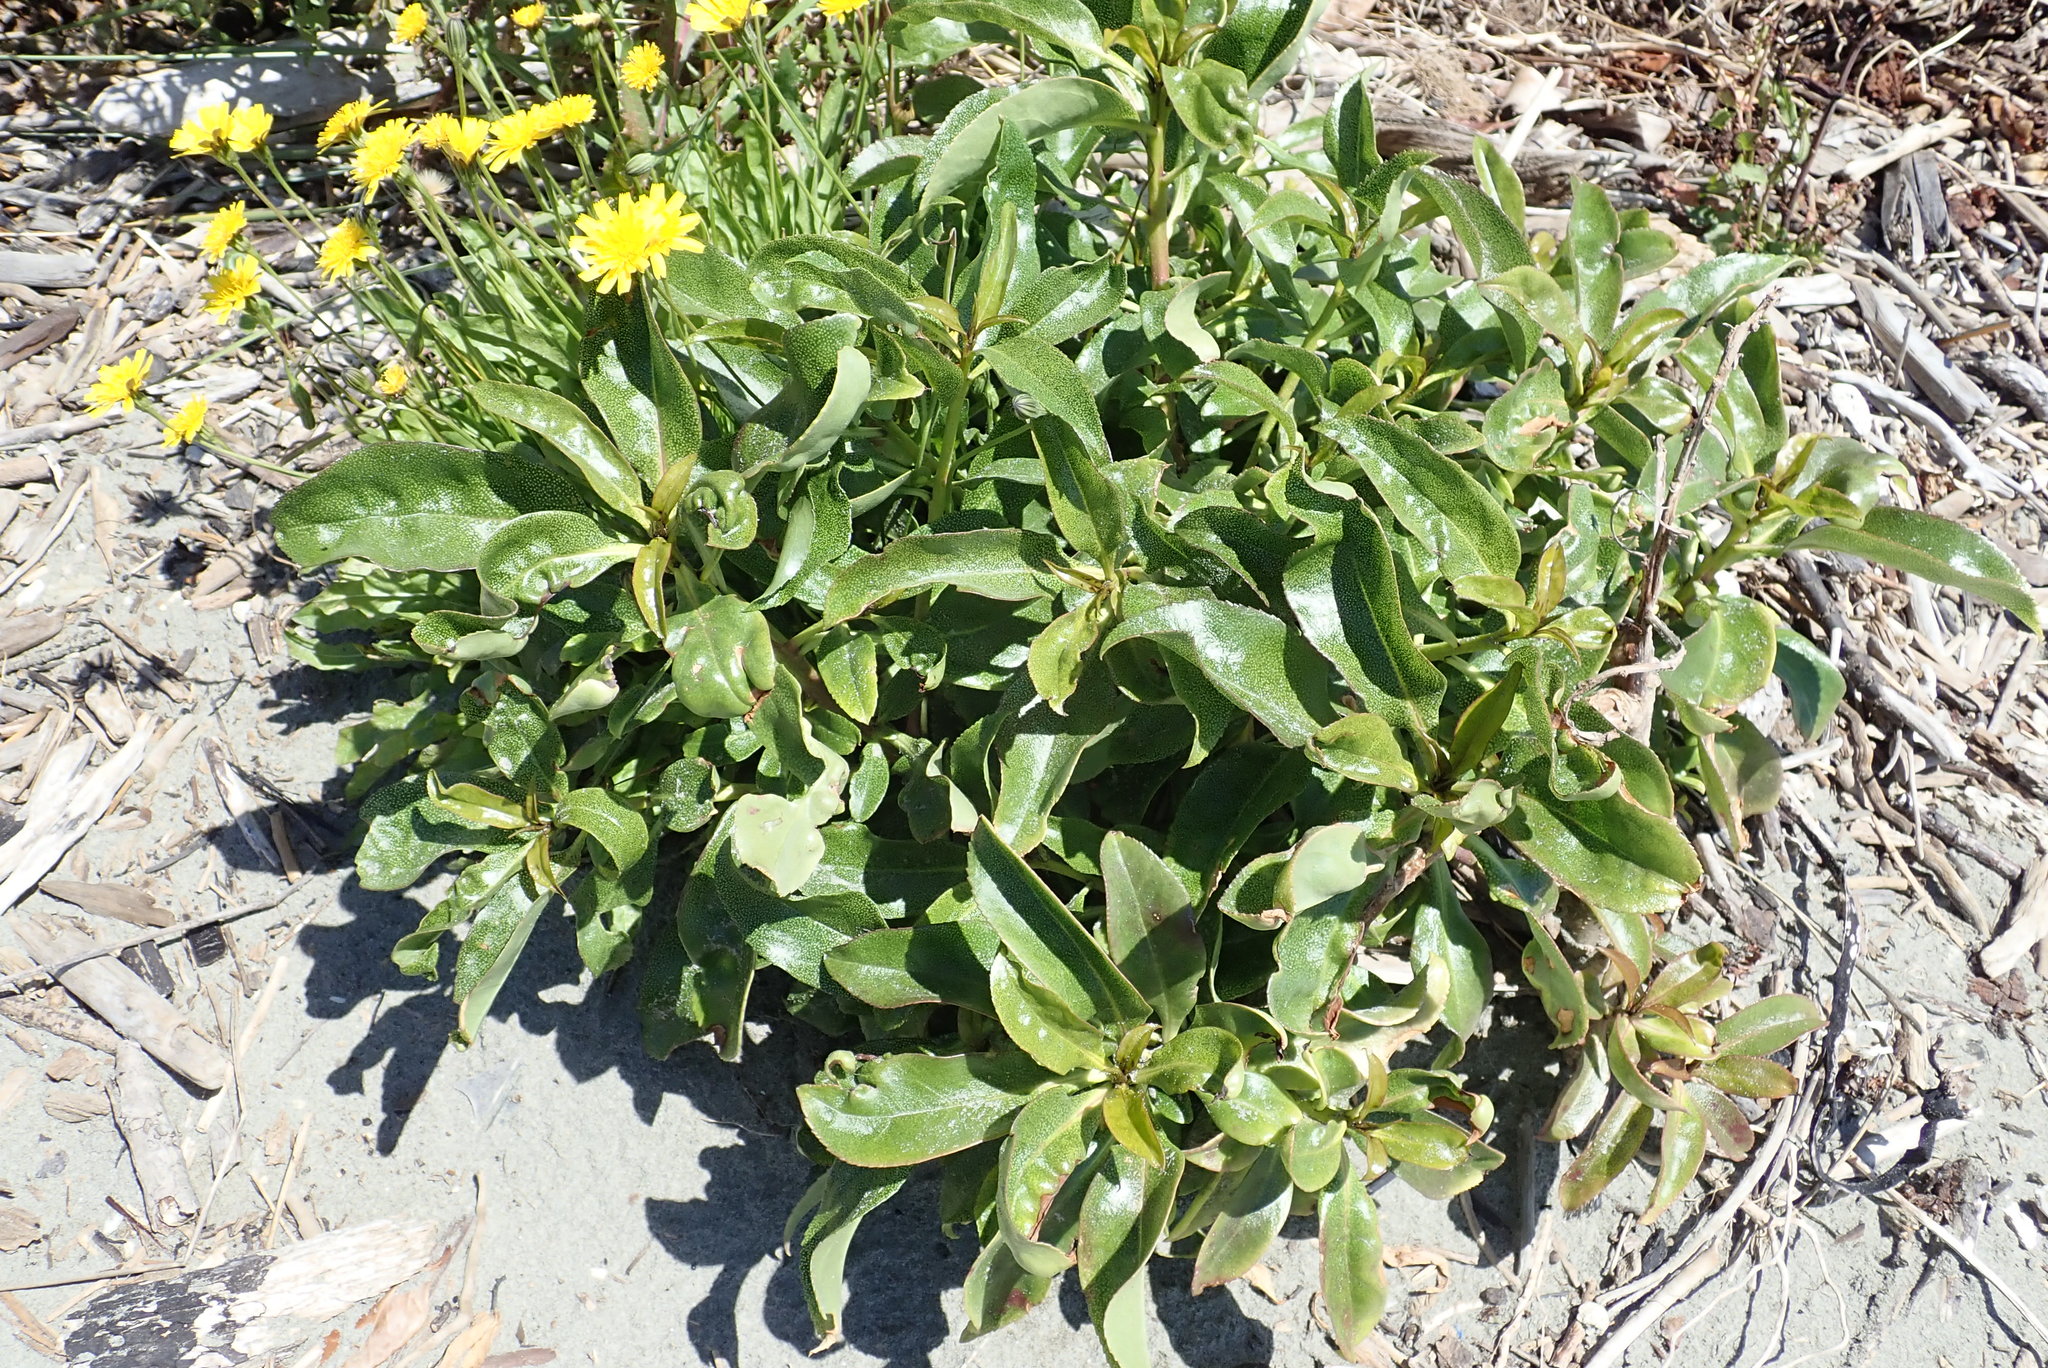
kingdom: Plantae
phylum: Tracheophyta
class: Magnoliopsida
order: Lamiales
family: Scrophulariaceae
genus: Myoporum
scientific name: Myoporum laetum
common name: Ngaio tree
